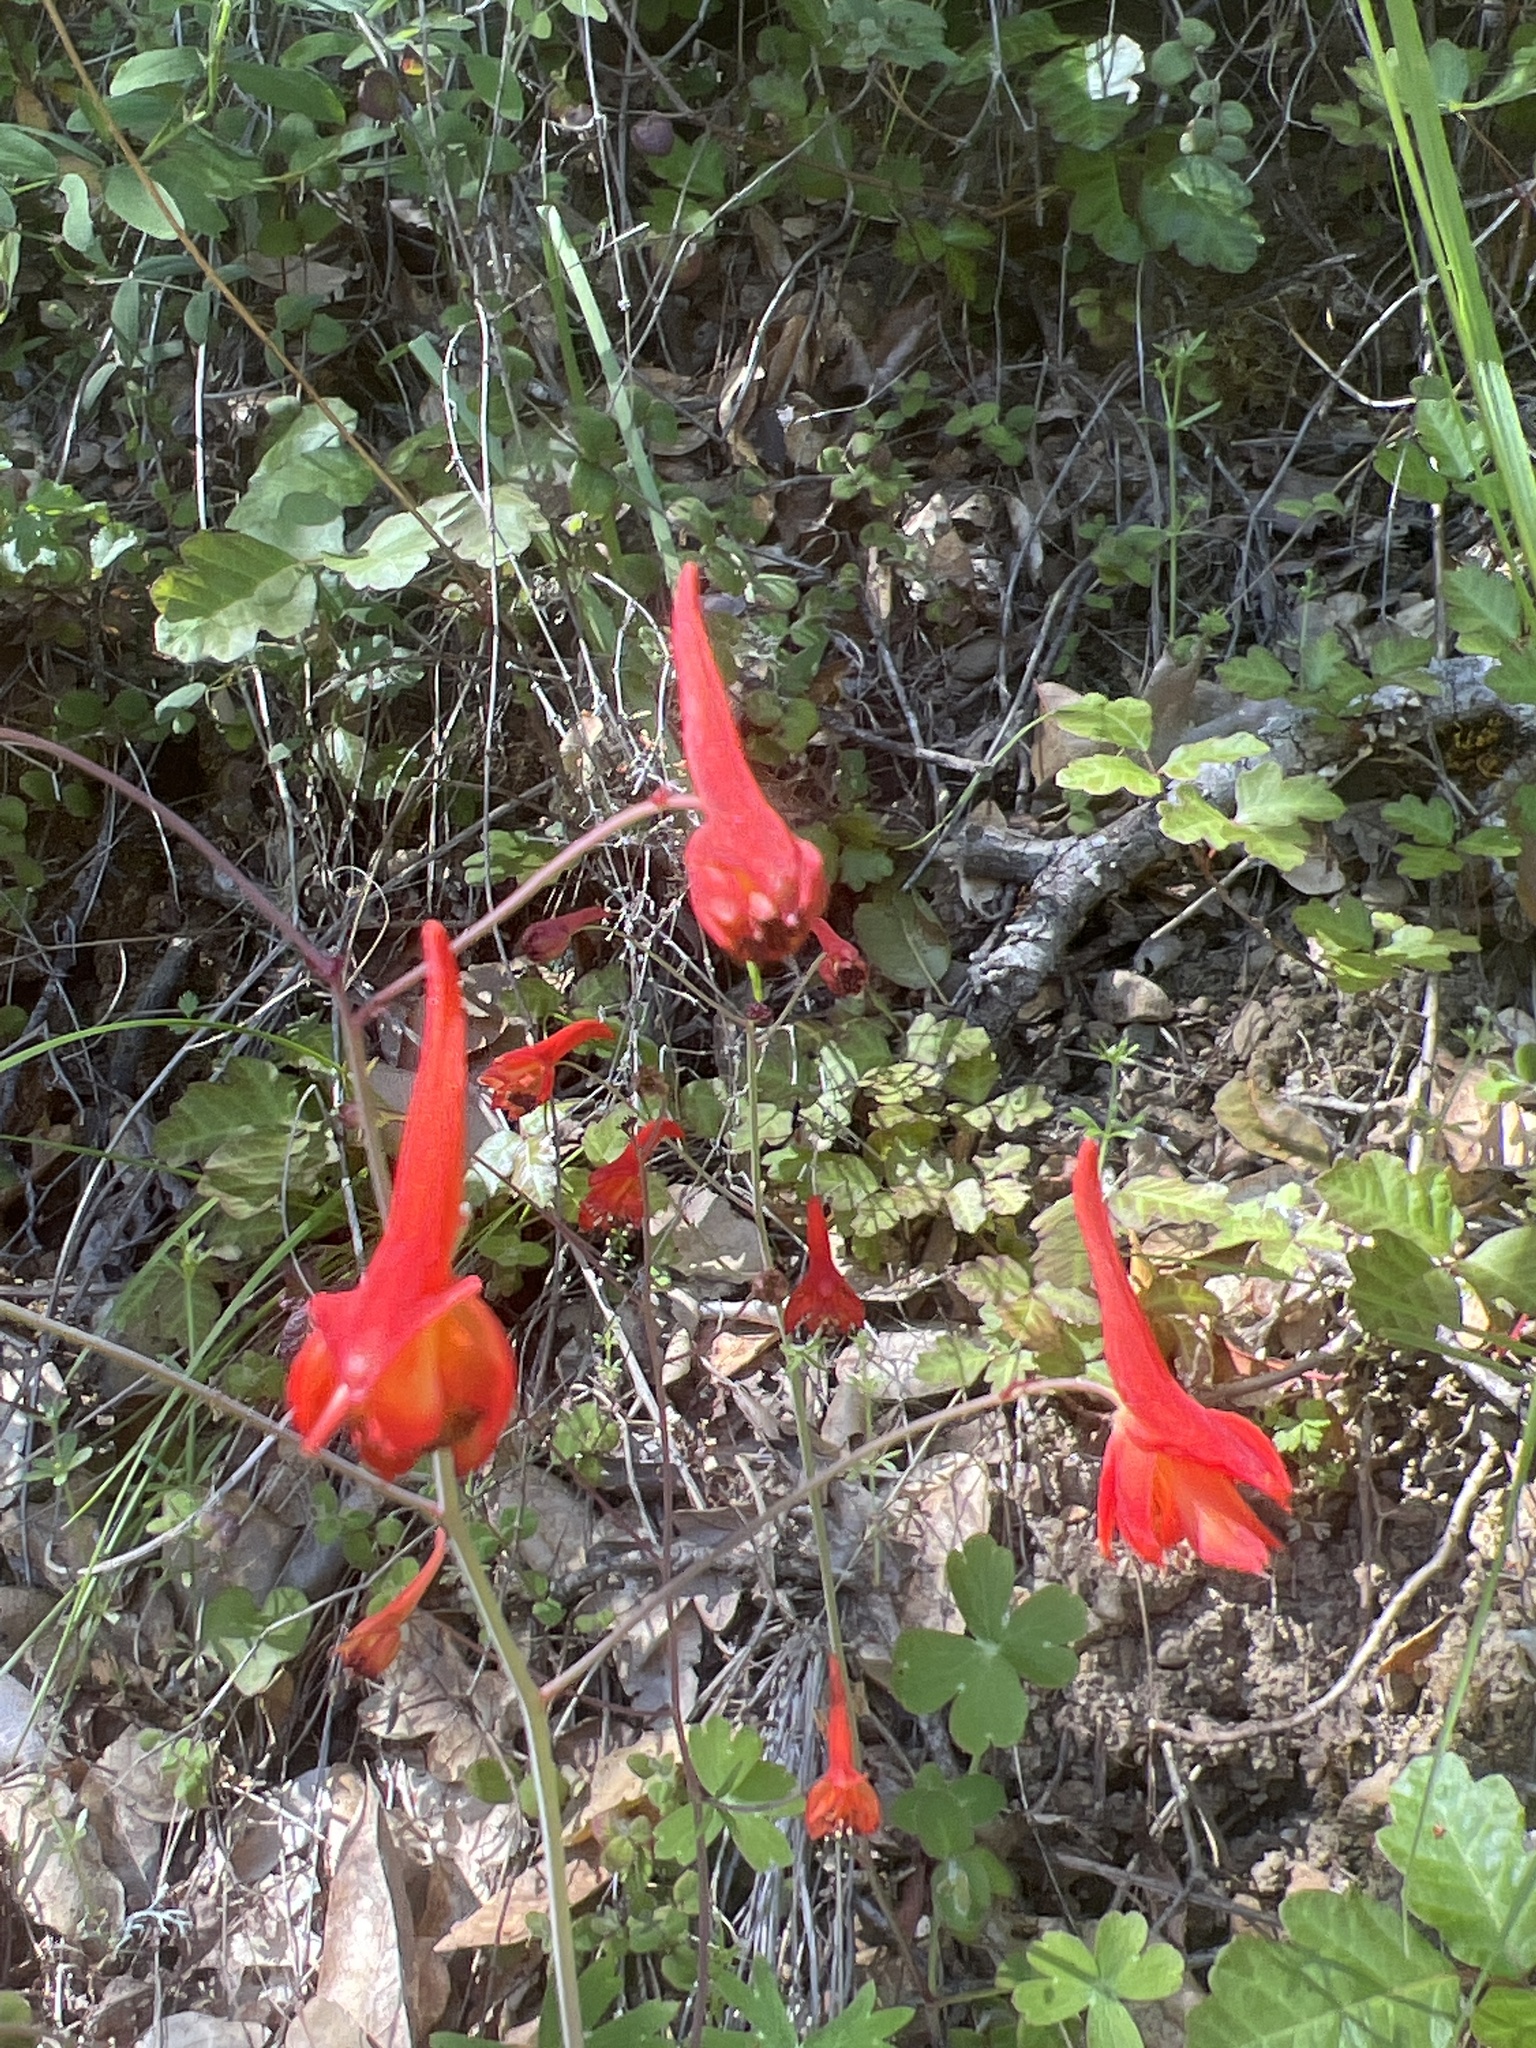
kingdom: Plantae
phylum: Tracheophyta
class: Magnoliopsida
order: Ranunculales
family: Ranunculaceae
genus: Delphinium
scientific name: Delphinium nudicaule
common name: Red larkspur
